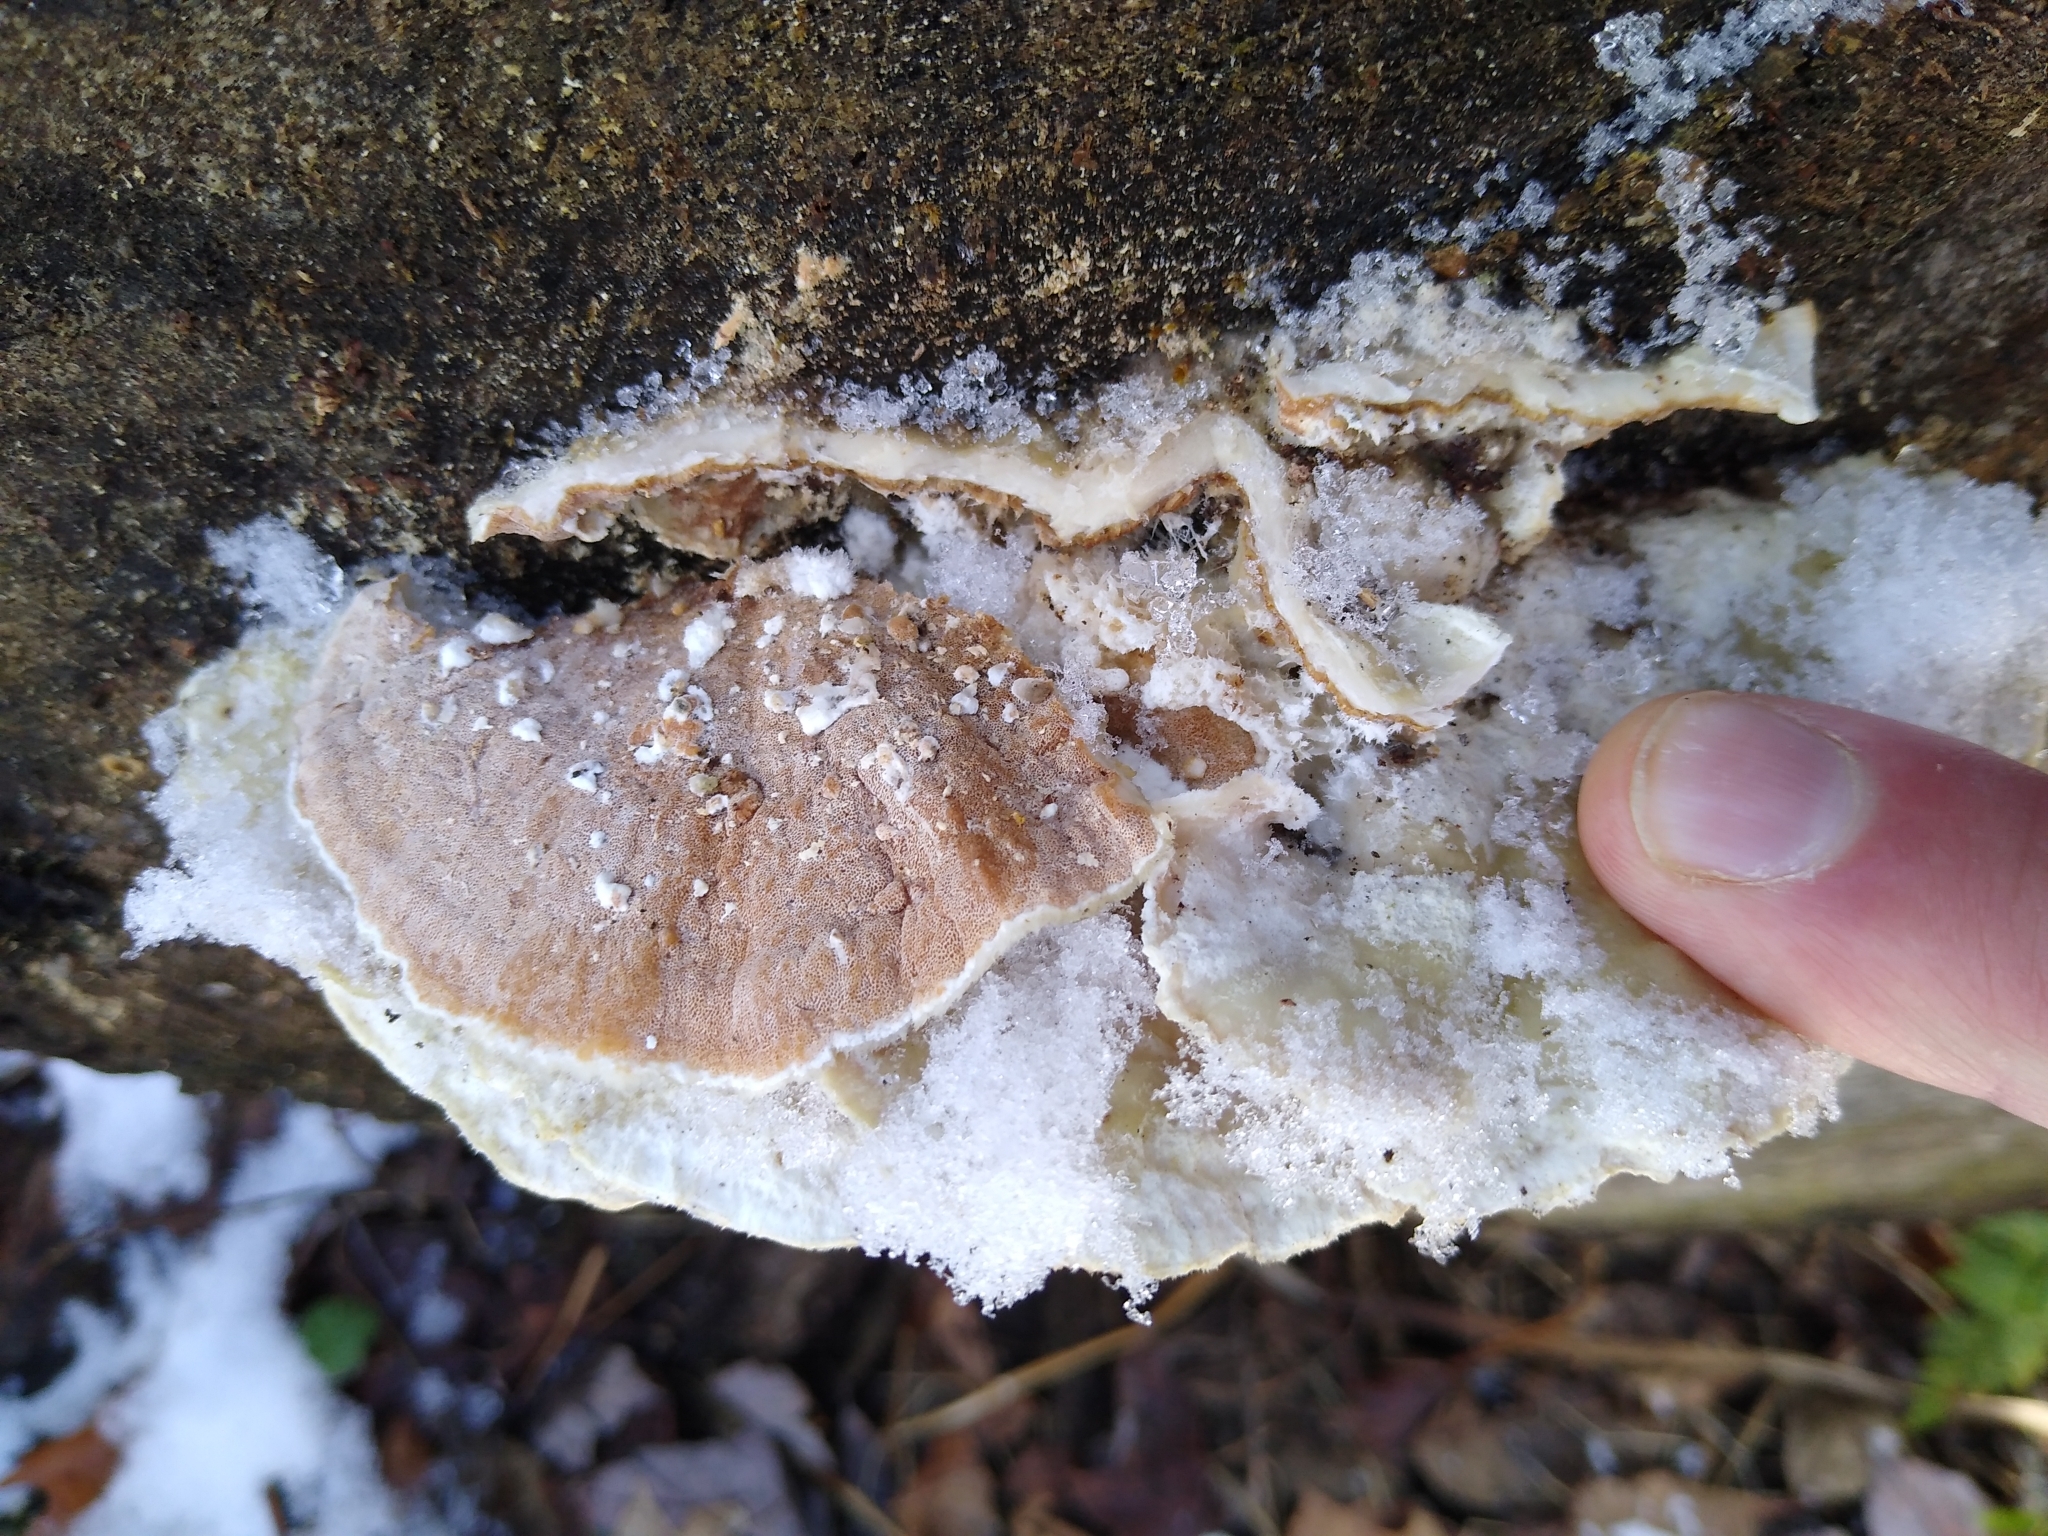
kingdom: Fungi
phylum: Basidiomycota
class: Agaricomycetes
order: Polyporales
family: Irpicaceae
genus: Vitreoporus
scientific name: Vitreoporus dichrous
